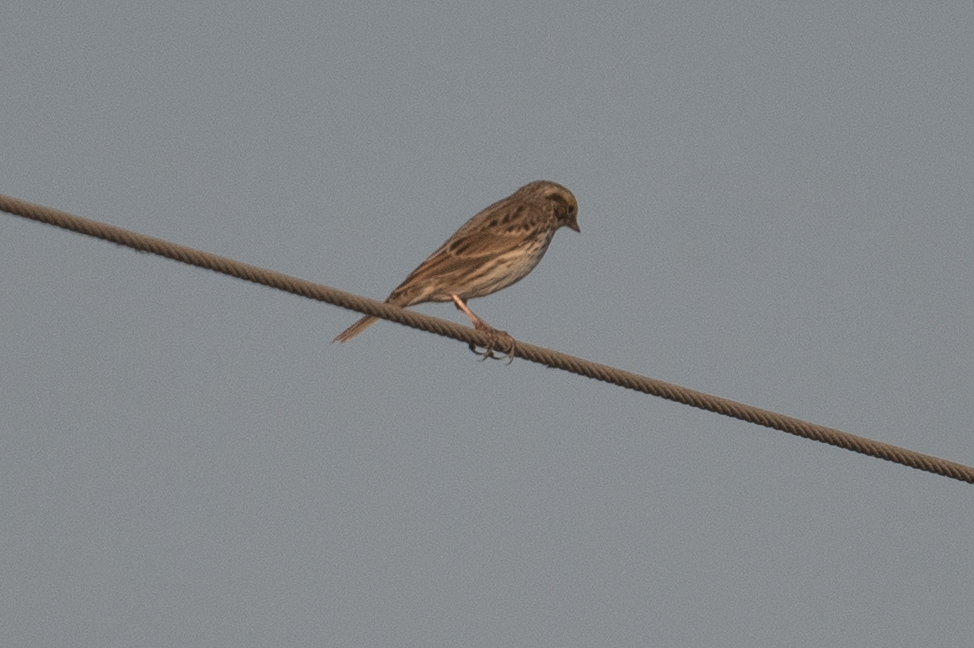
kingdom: Animalia
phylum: Chordata
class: Aves
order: Passeriformes
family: Passerellidae
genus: Passerculus
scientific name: Passerculus sandwichensis
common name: Savannah sparrow
